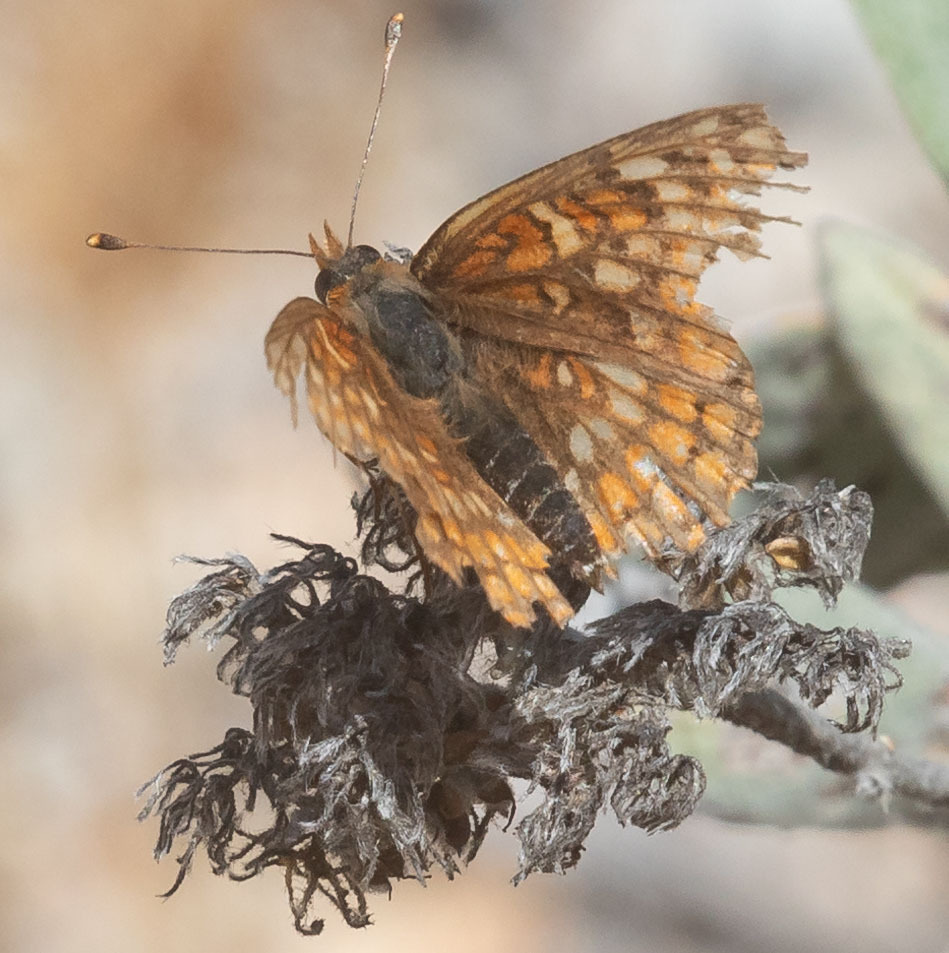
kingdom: Animalia
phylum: Arthropoda
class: Insecta
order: Lepidoptera
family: Nymphalidae
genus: Chlosyne
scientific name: Chlosyne gabbii
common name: Gabb's checkerspot
